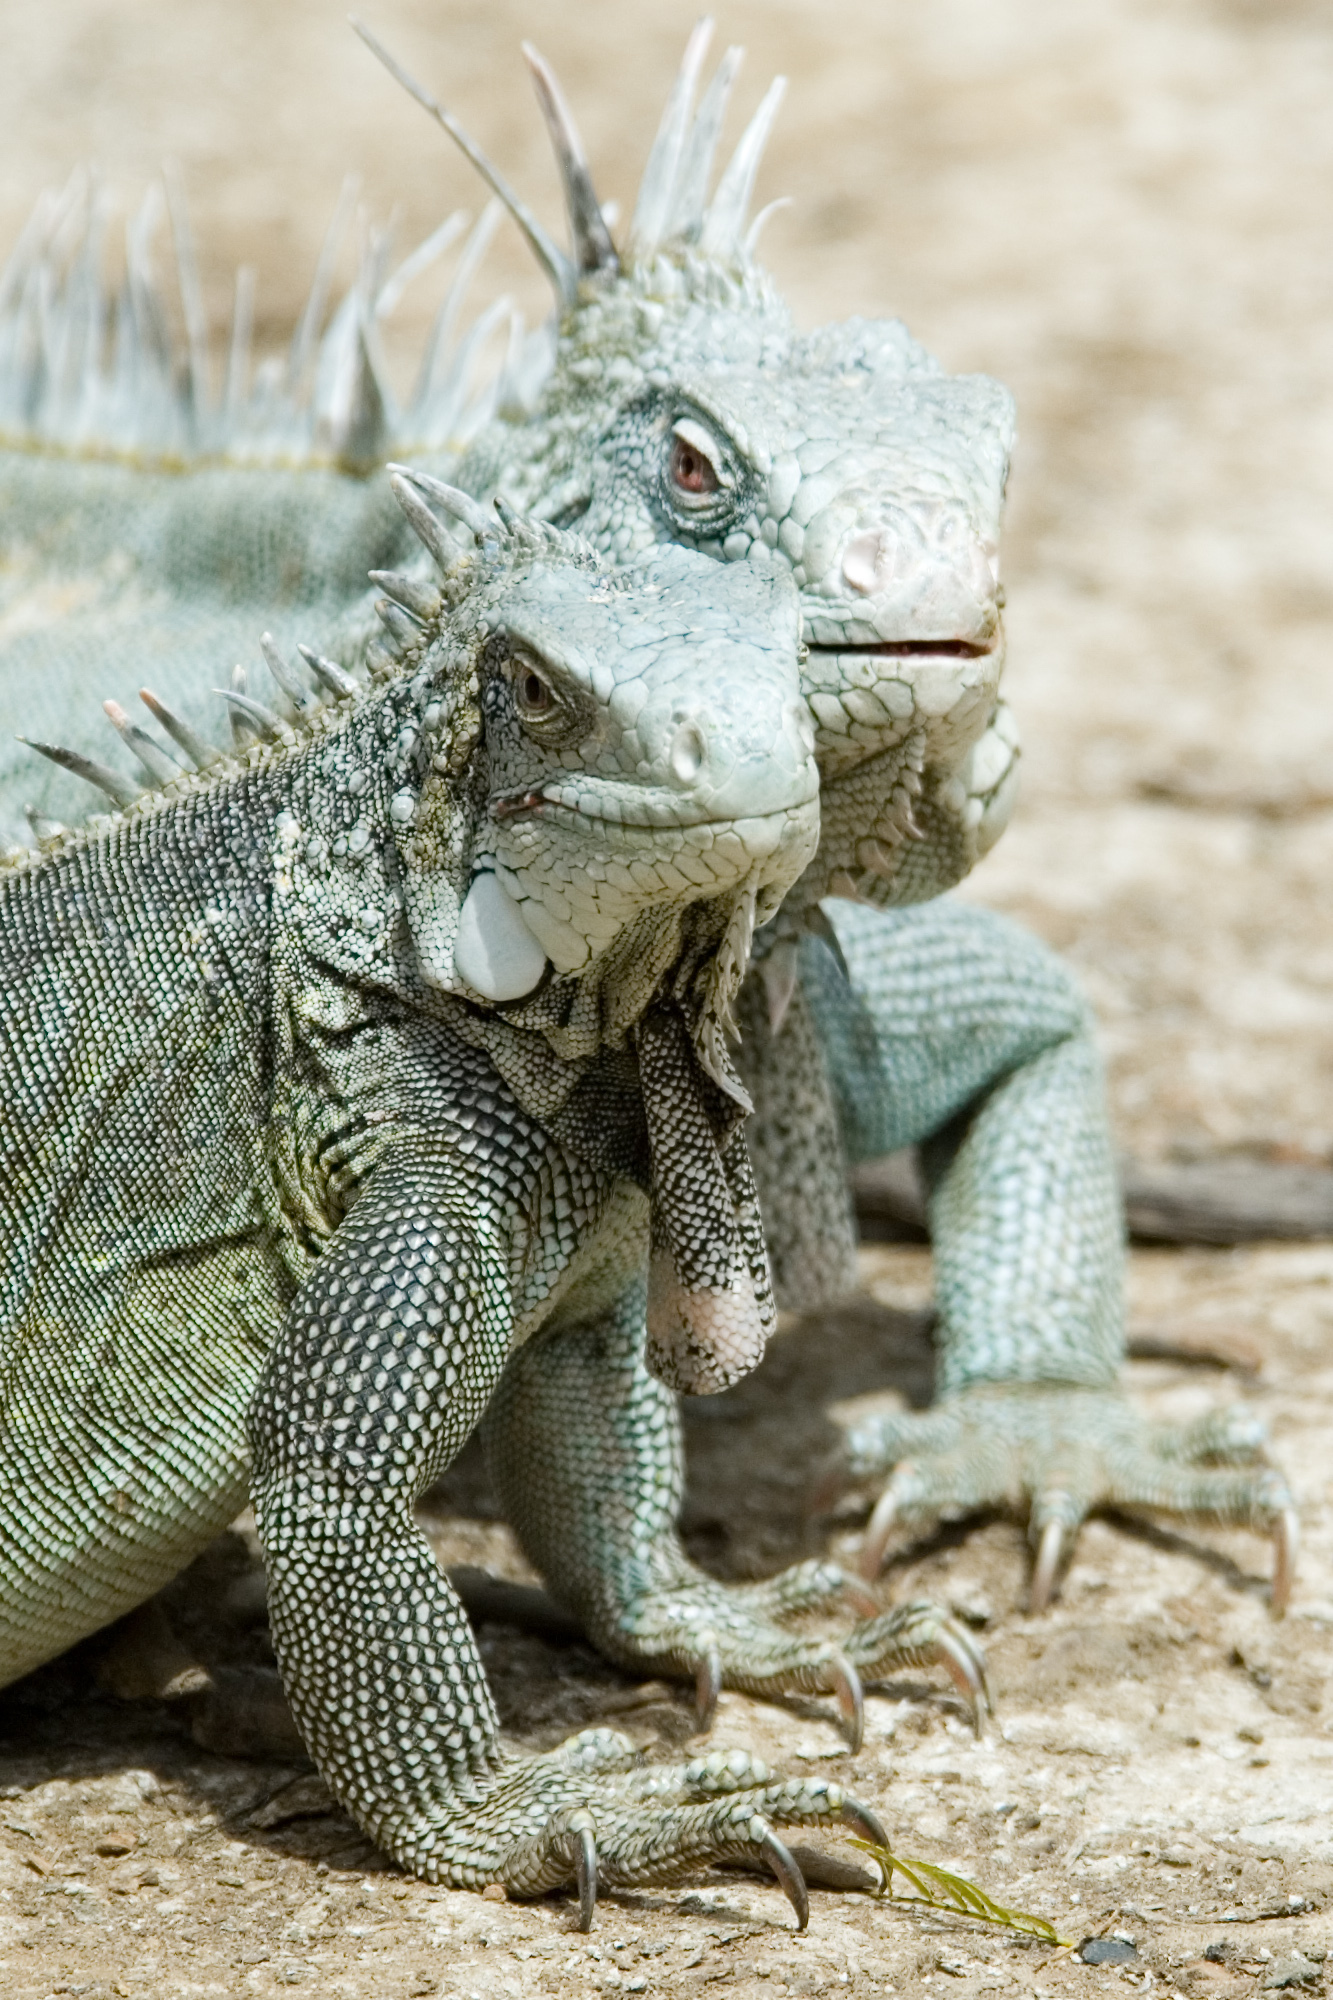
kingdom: Animalia
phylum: Chordata
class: Squamata
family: Iguanidae
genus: Iguana
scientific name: Iguana iguana
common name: Green iguana
